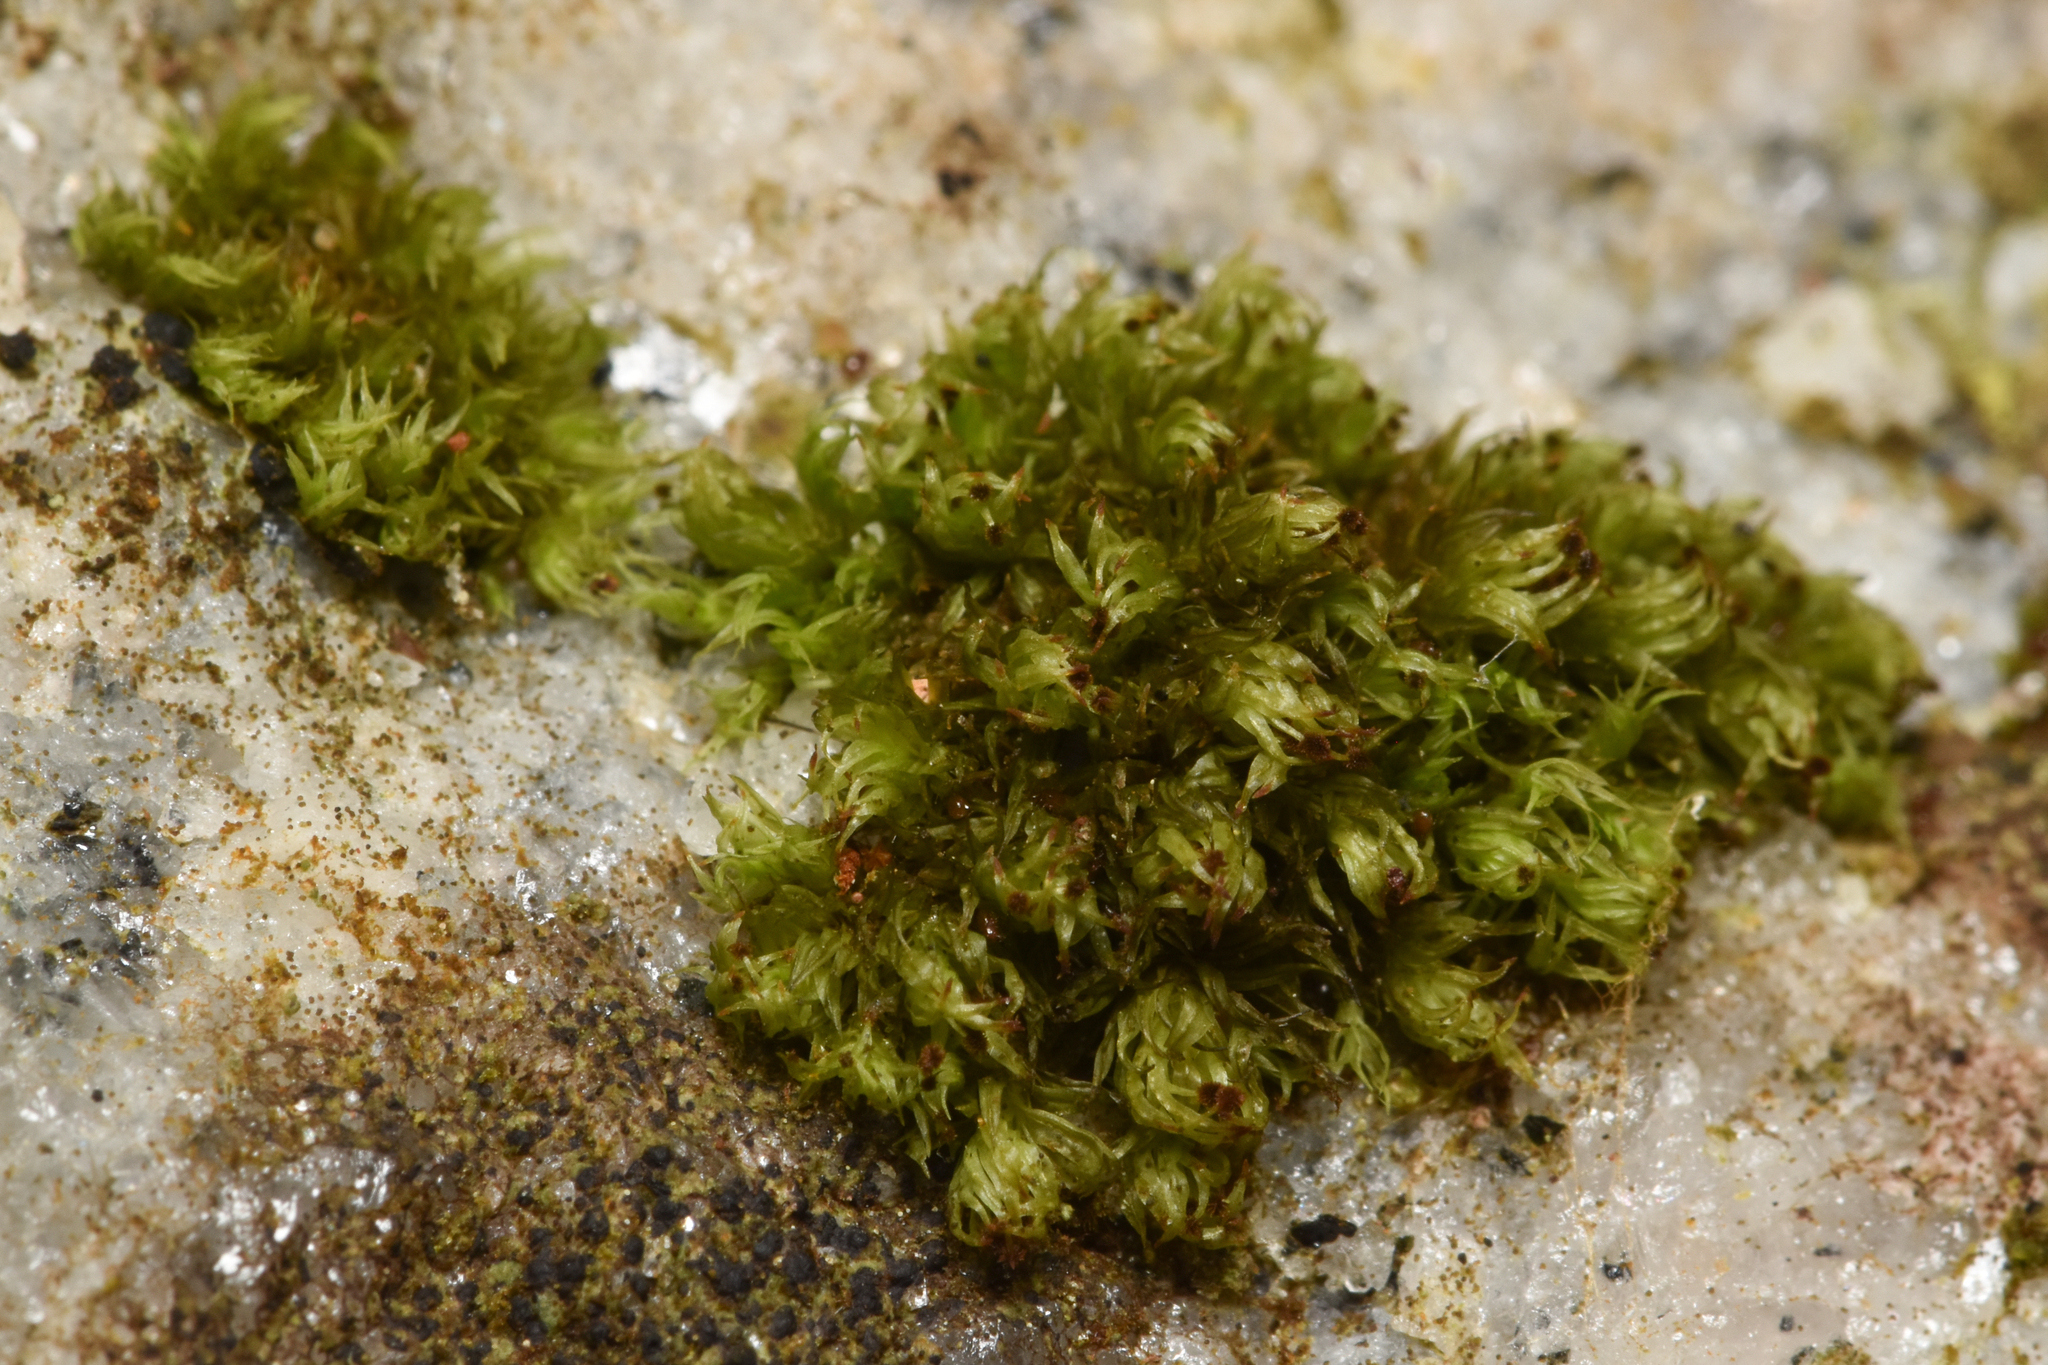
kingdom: Plantae
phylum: Bryophyta
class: Bryopsida
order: Orthotrichales
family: Orthotrichaceae
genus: Plenogemma
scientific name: Plenogemma phyllantha
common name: Frizzled pincushion
